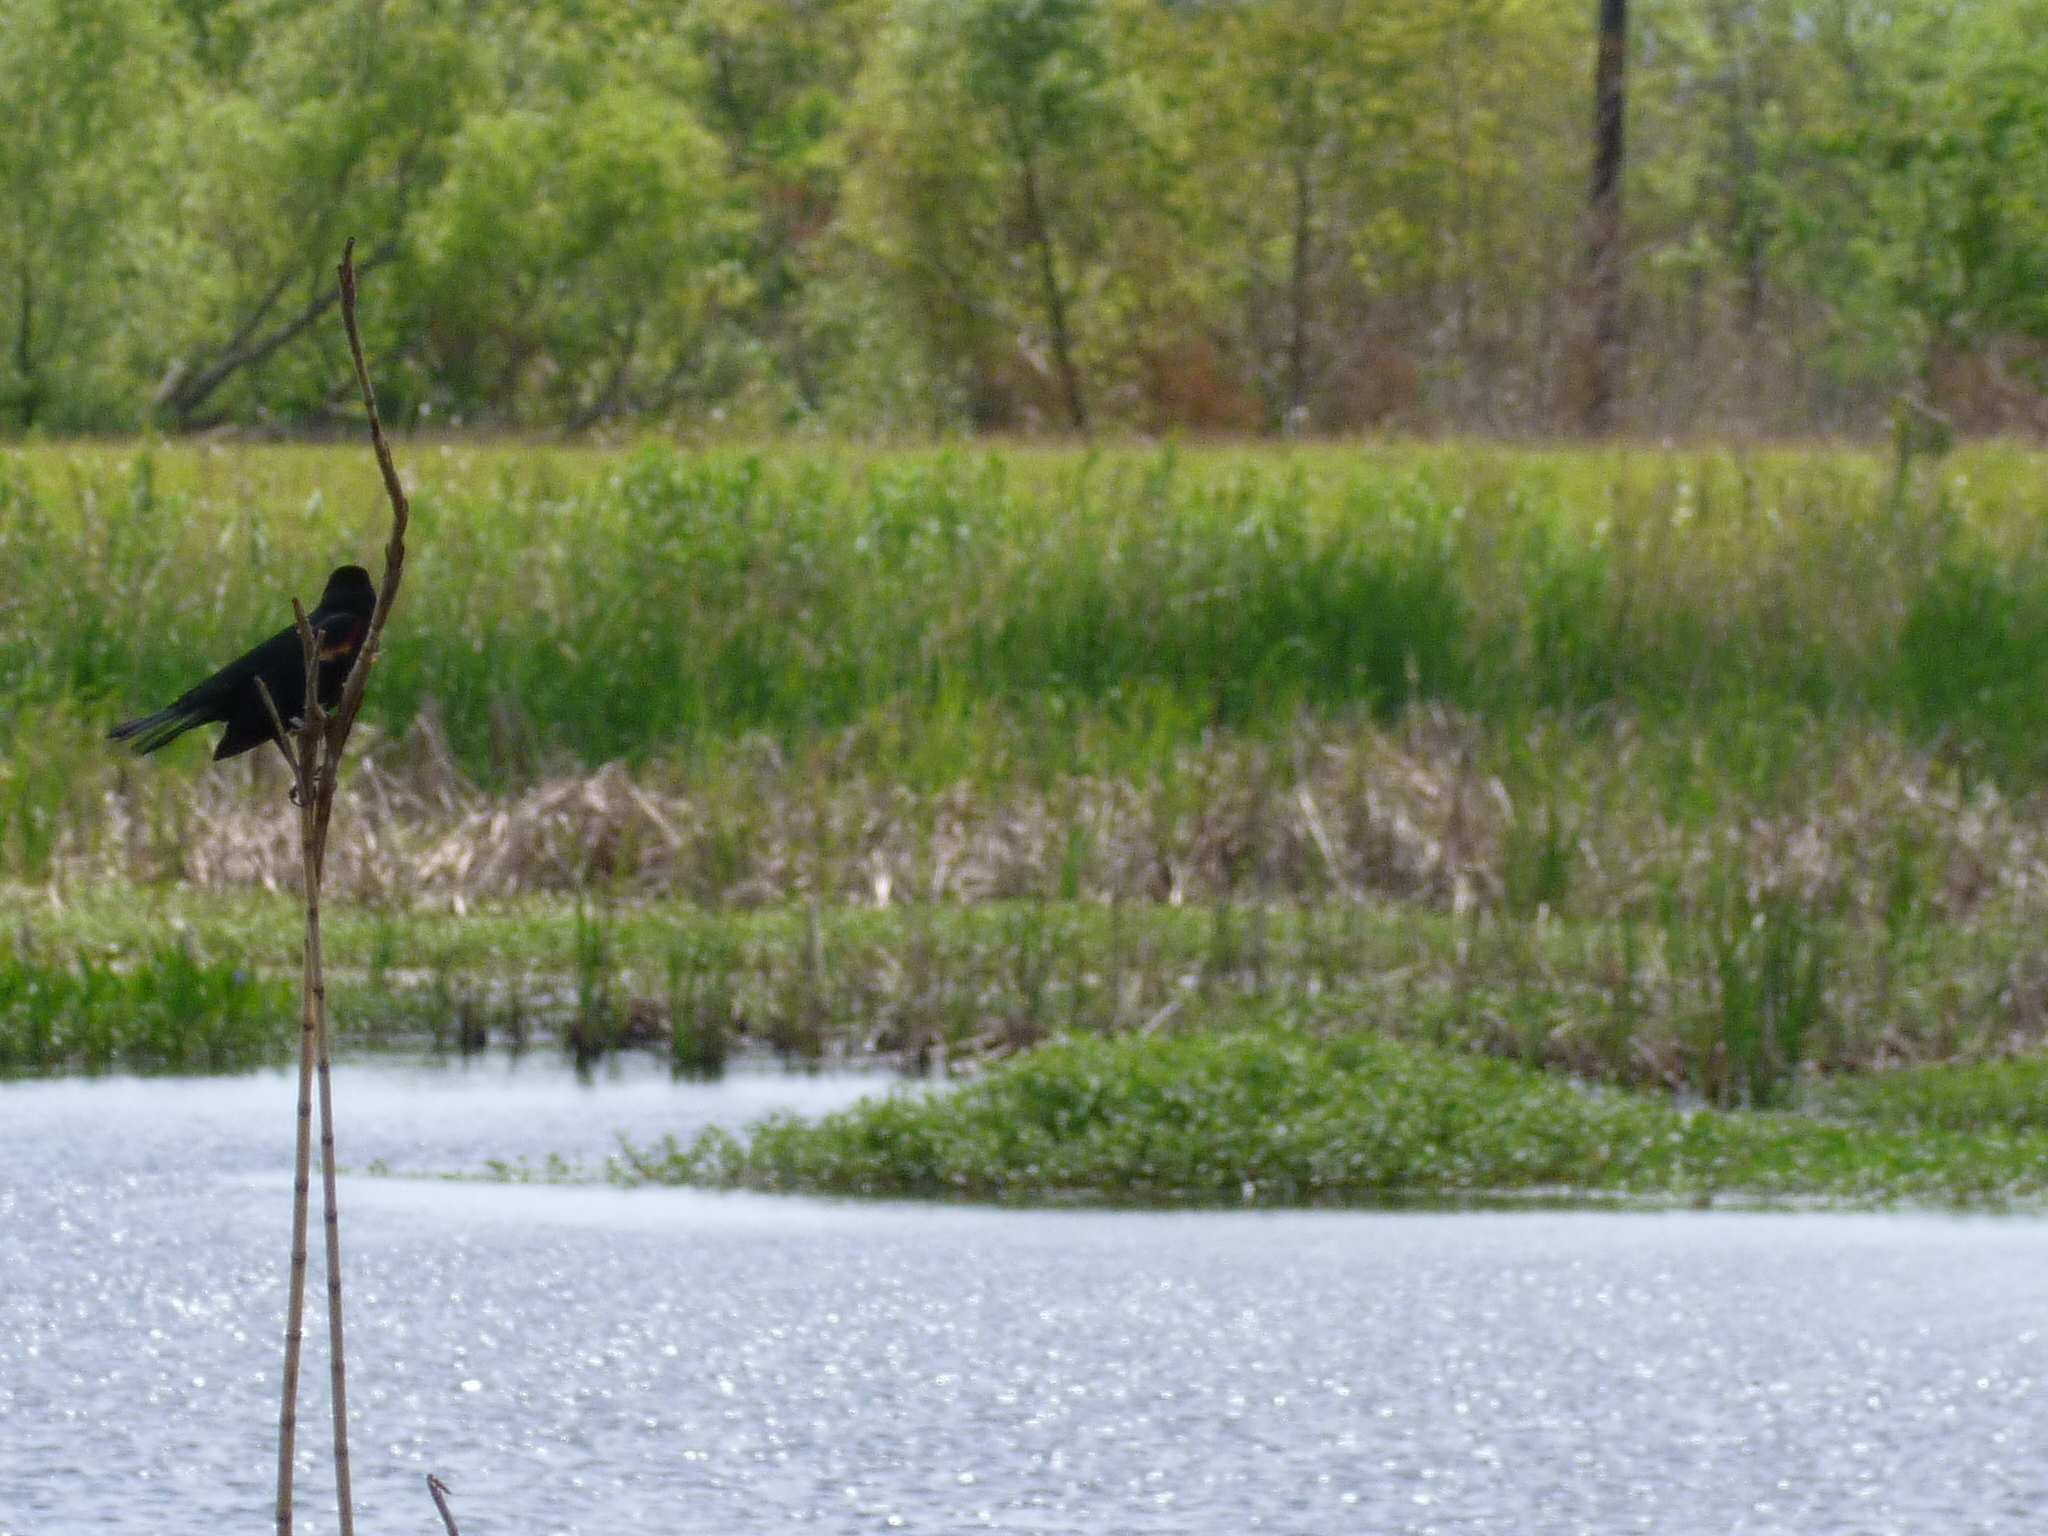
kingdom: Animalia
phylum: Chordata
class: Aves
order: Passeriformes
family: Icteridae
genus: Agelaius
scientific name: Agelaius phoeniceus
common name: Red-winged blackbird
